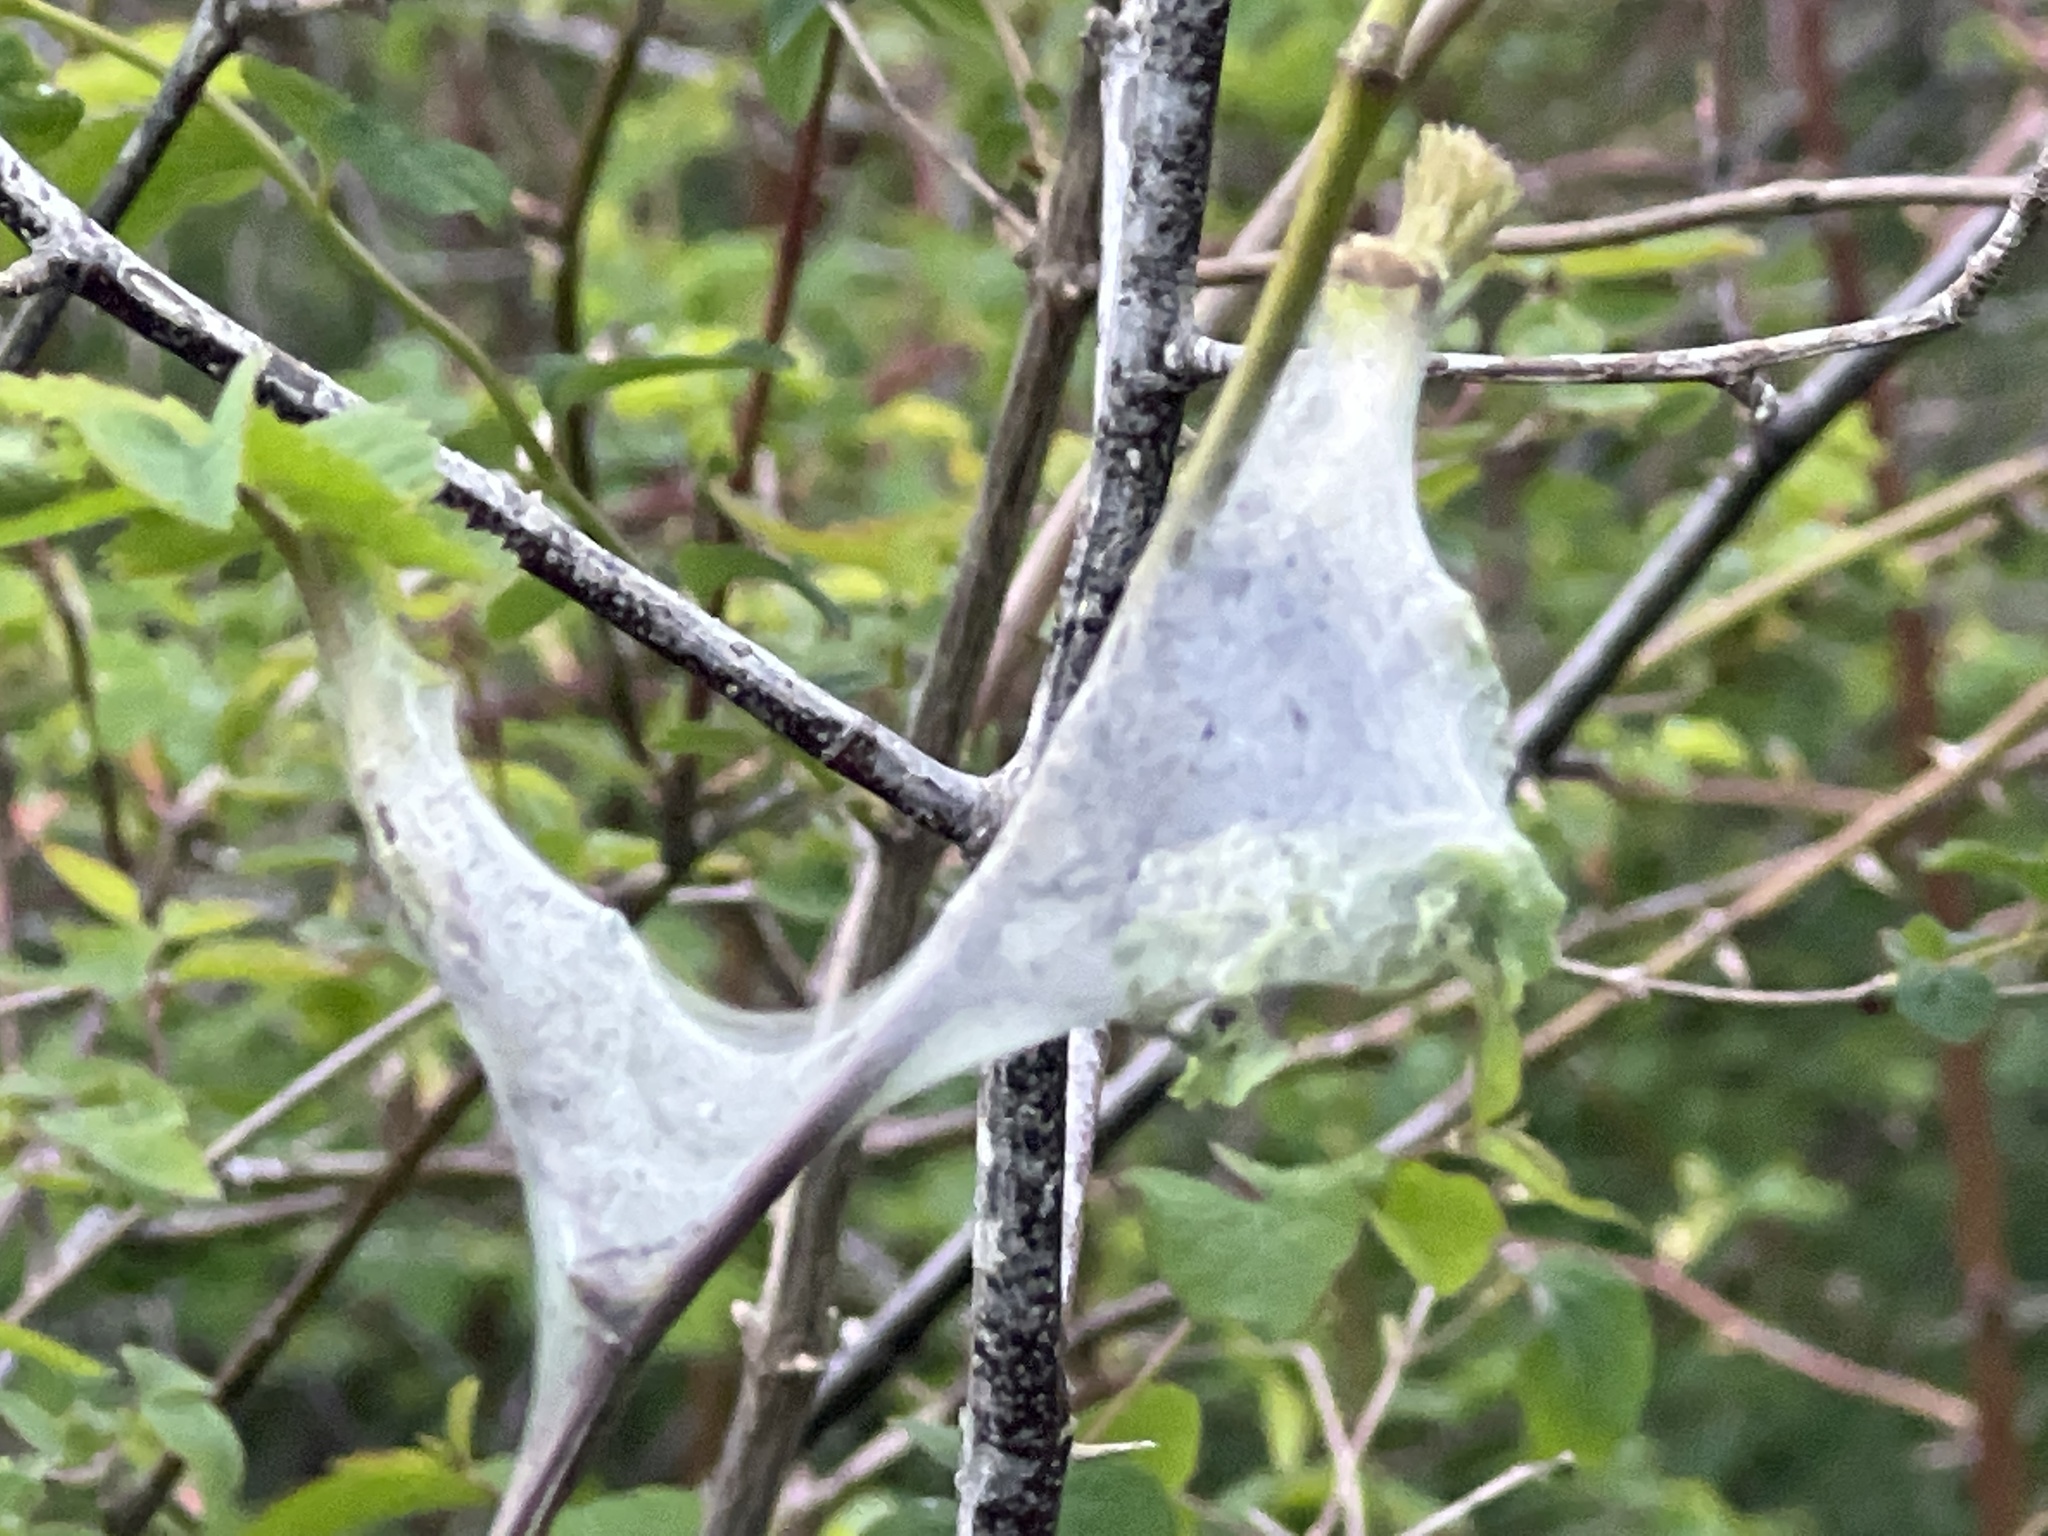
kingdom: Animalia
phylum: Arthropoda
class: Insecta
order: Lepidoptera
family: Lasiocampidae
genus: Malacosoma
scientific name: Malacosoma californica
